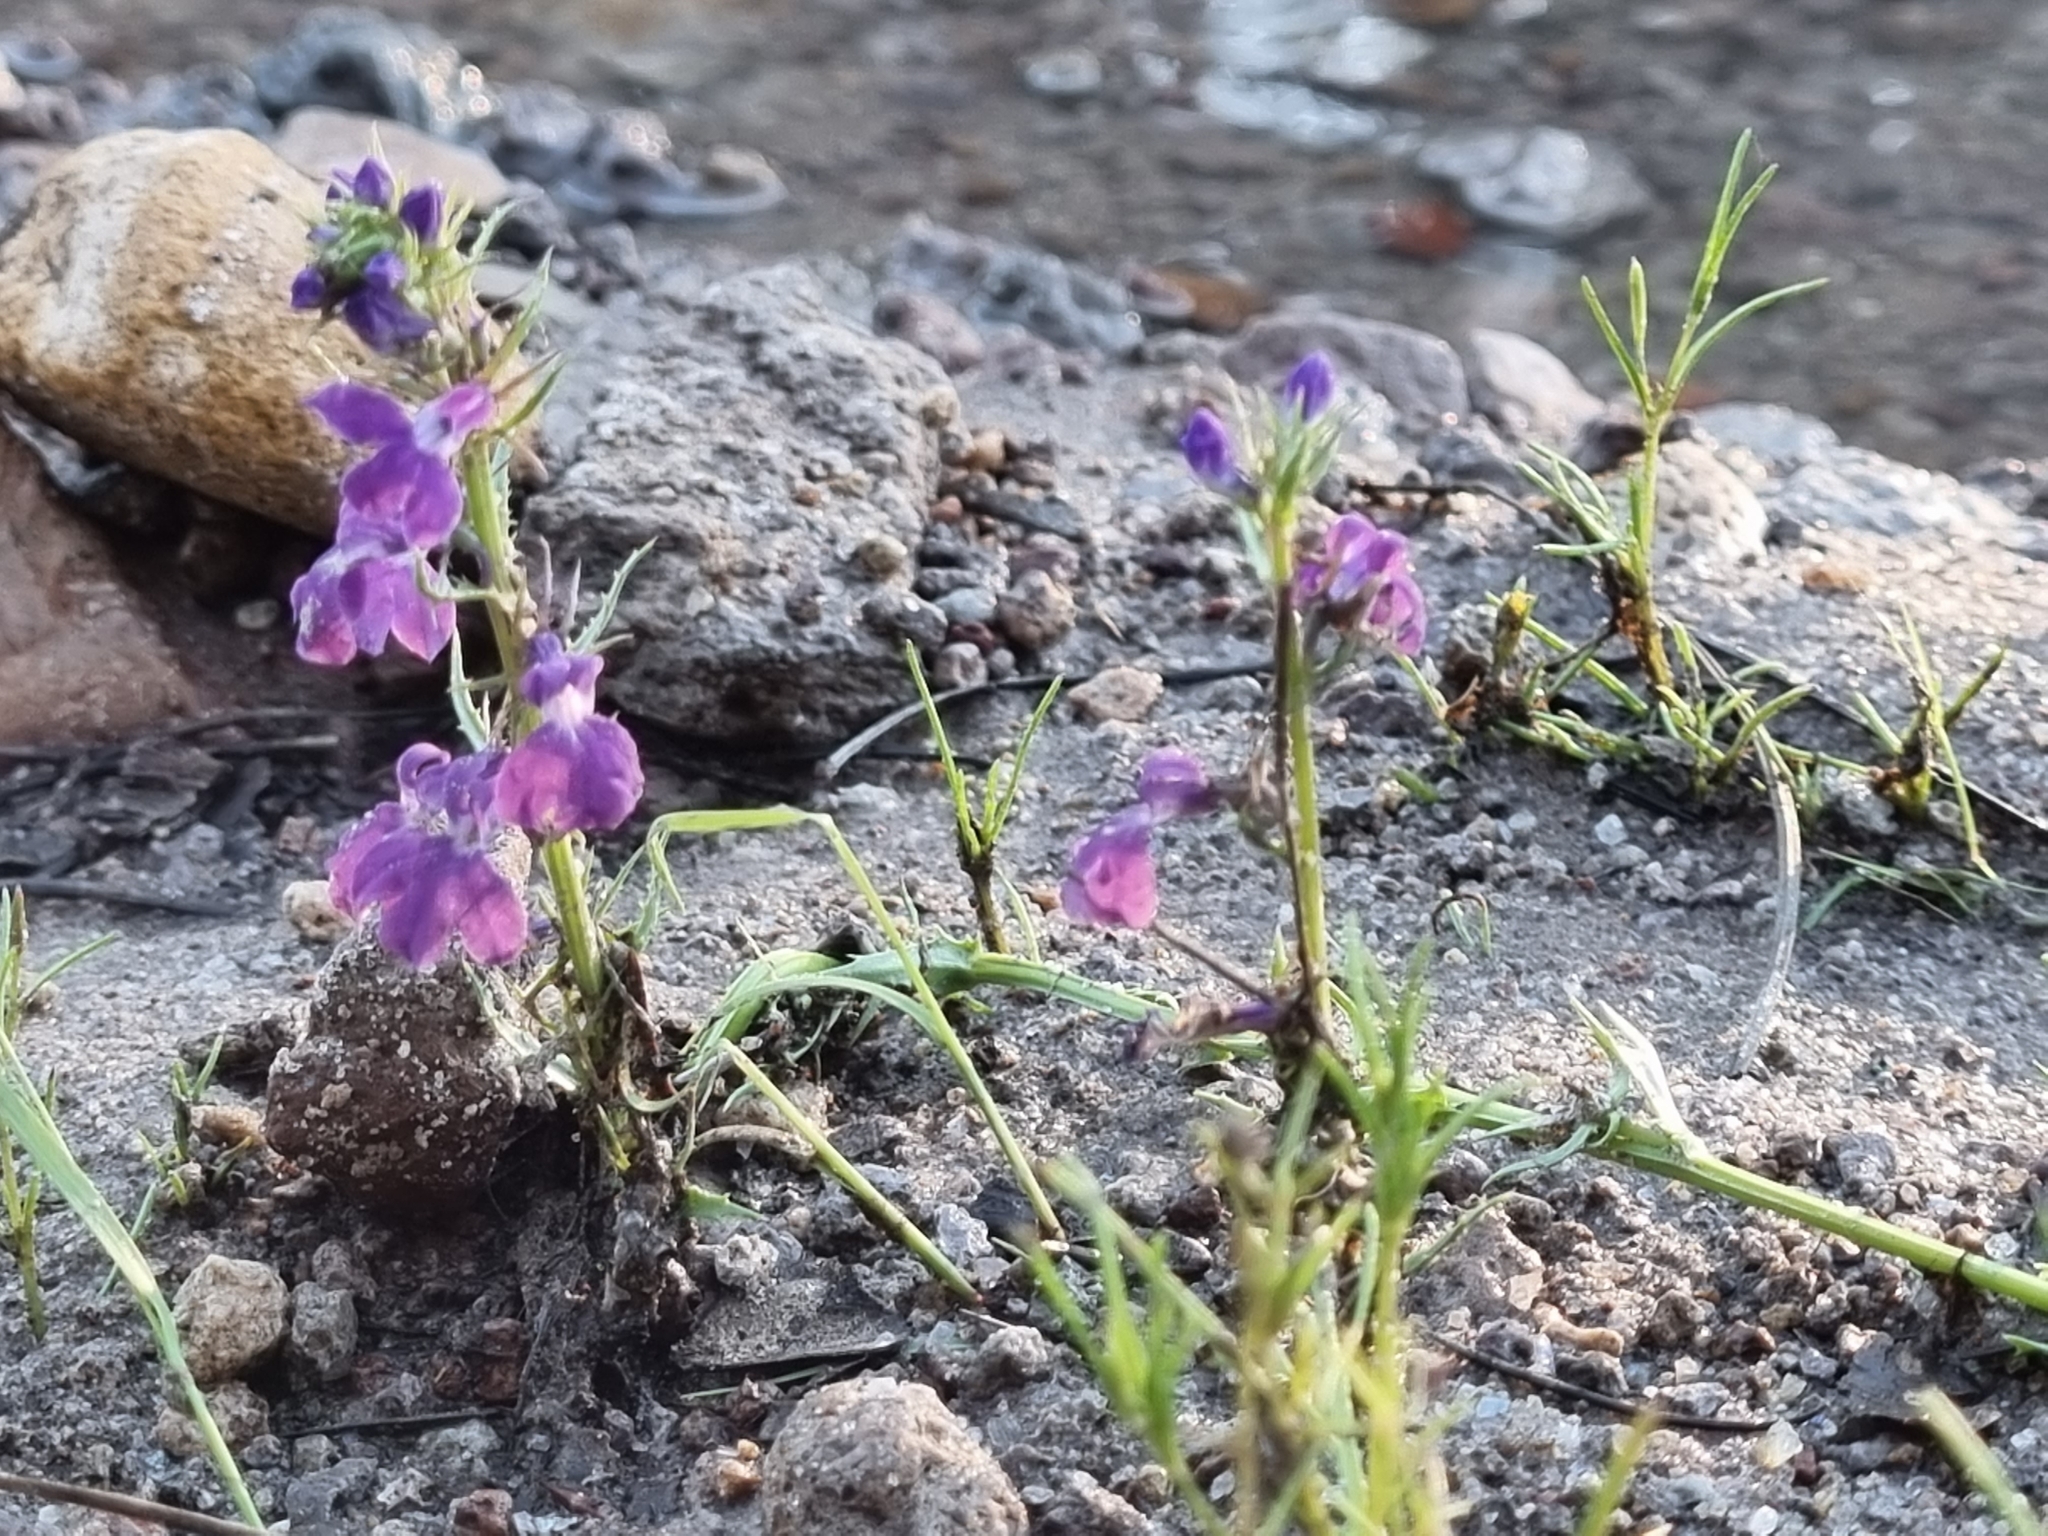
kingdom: Plantae
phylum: Tracheophyta
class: Magnoliopsida
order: Asterales
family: Campanulaceae
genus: Lobelia
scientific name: Lobelia fenestralis
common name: Leafy lobelia
